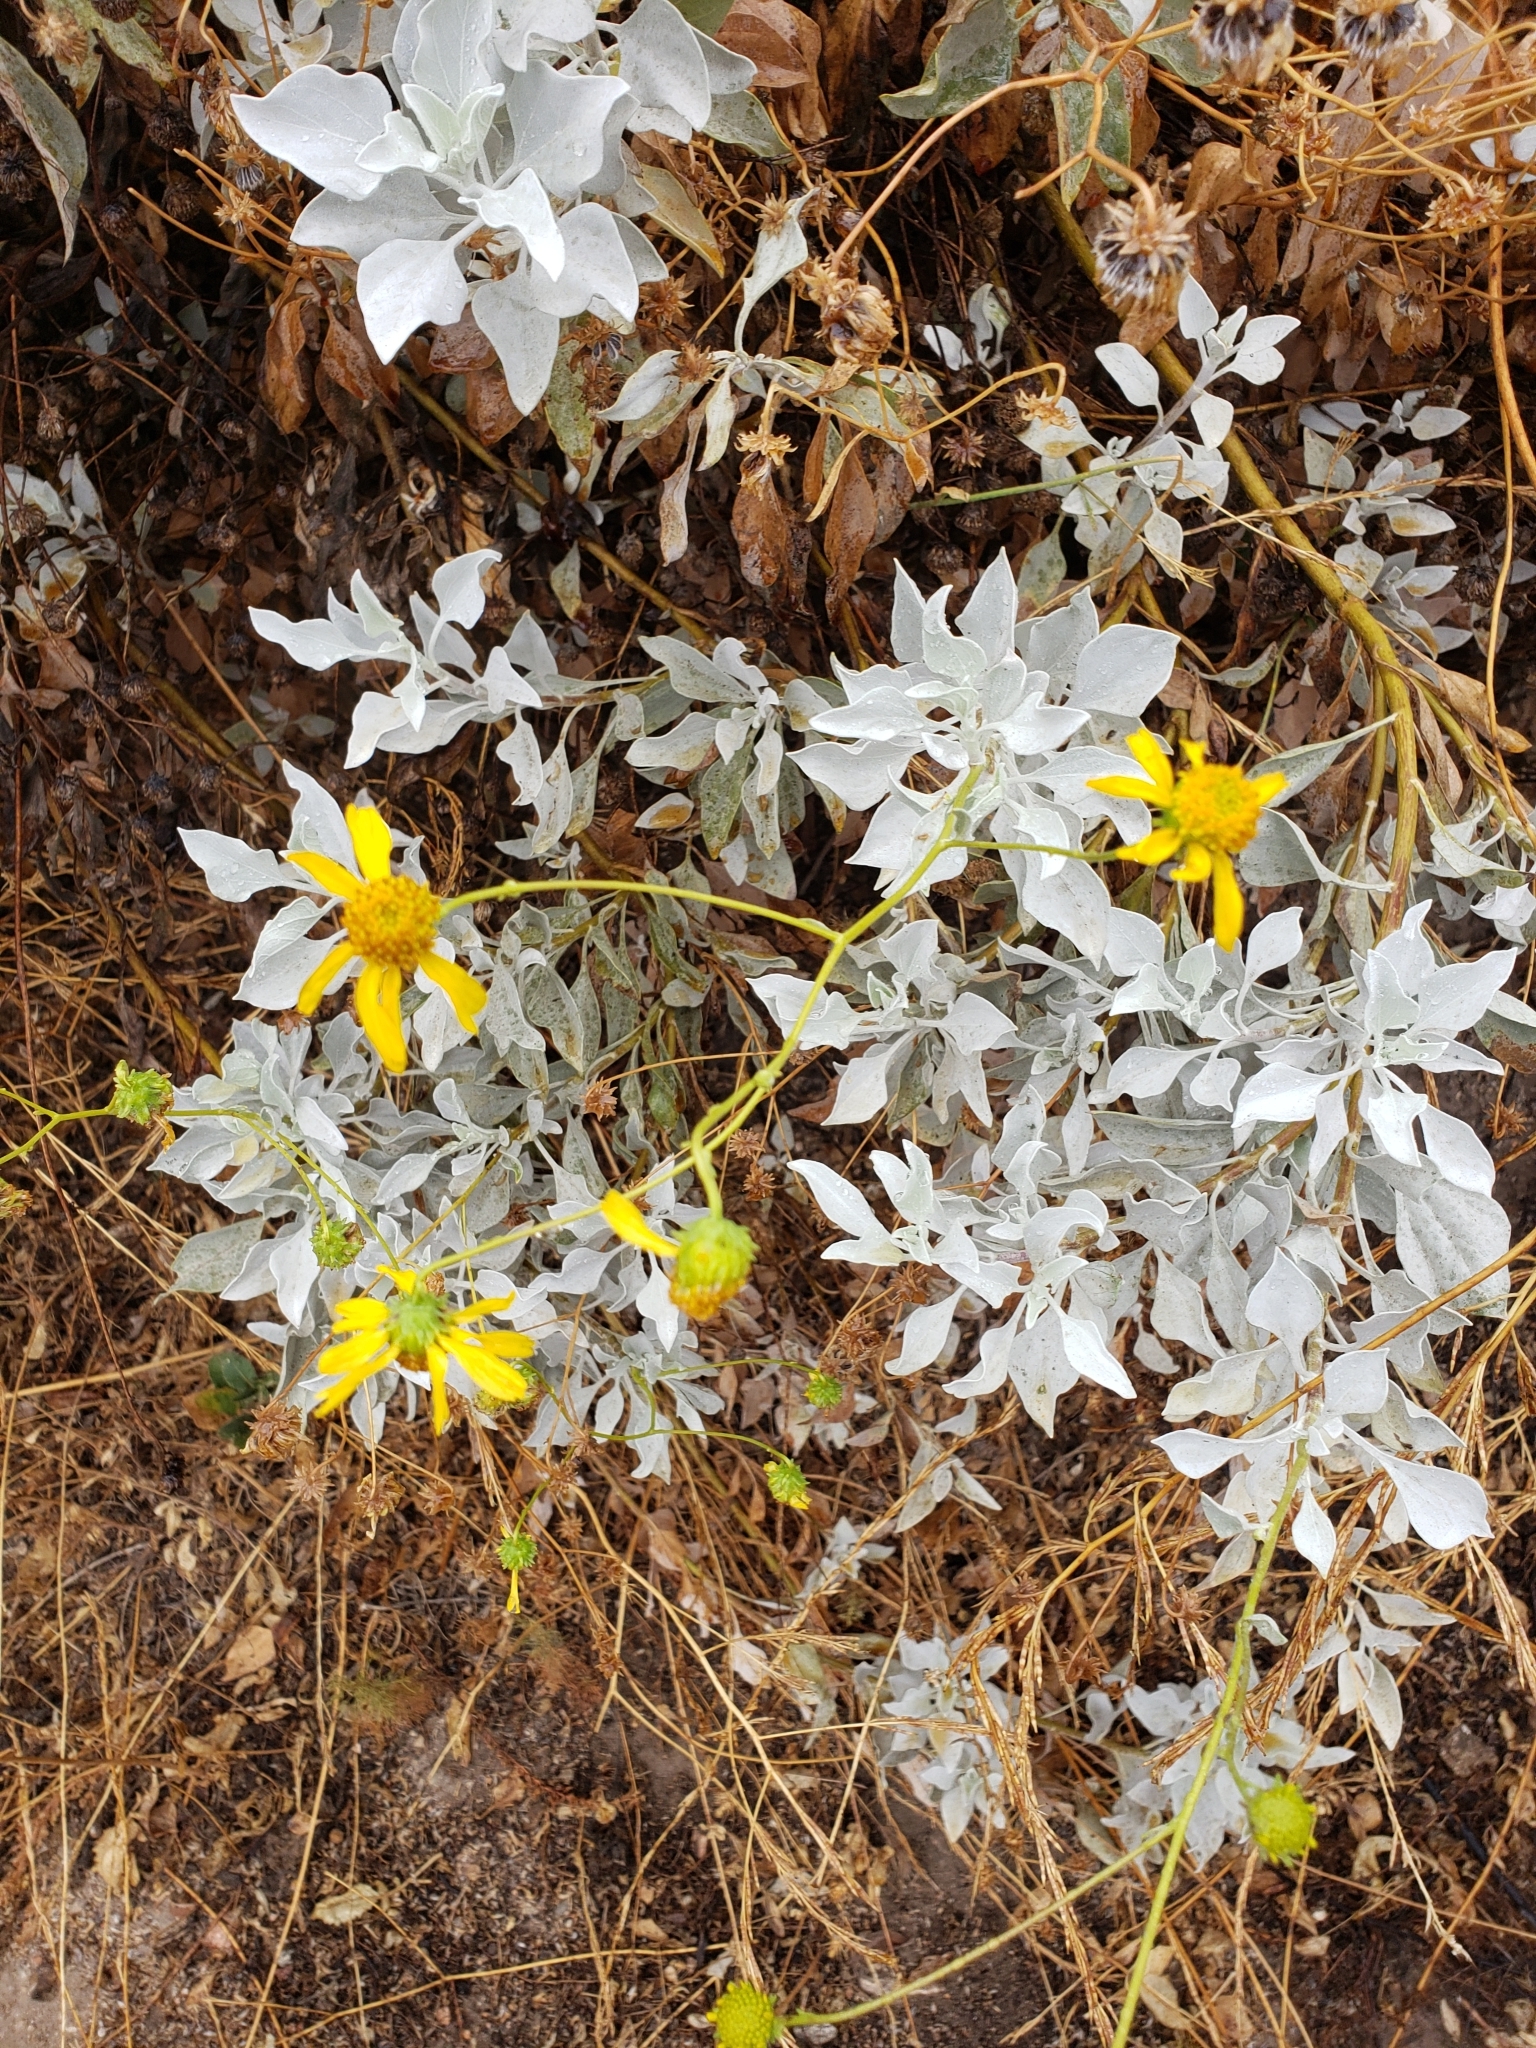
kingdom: Plantae
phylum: Tracheophyta
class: Magnoliopsida
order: Asterales
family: Asteraceae
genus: Encelia
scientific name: Encelia farinosa
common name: Brittlebush
